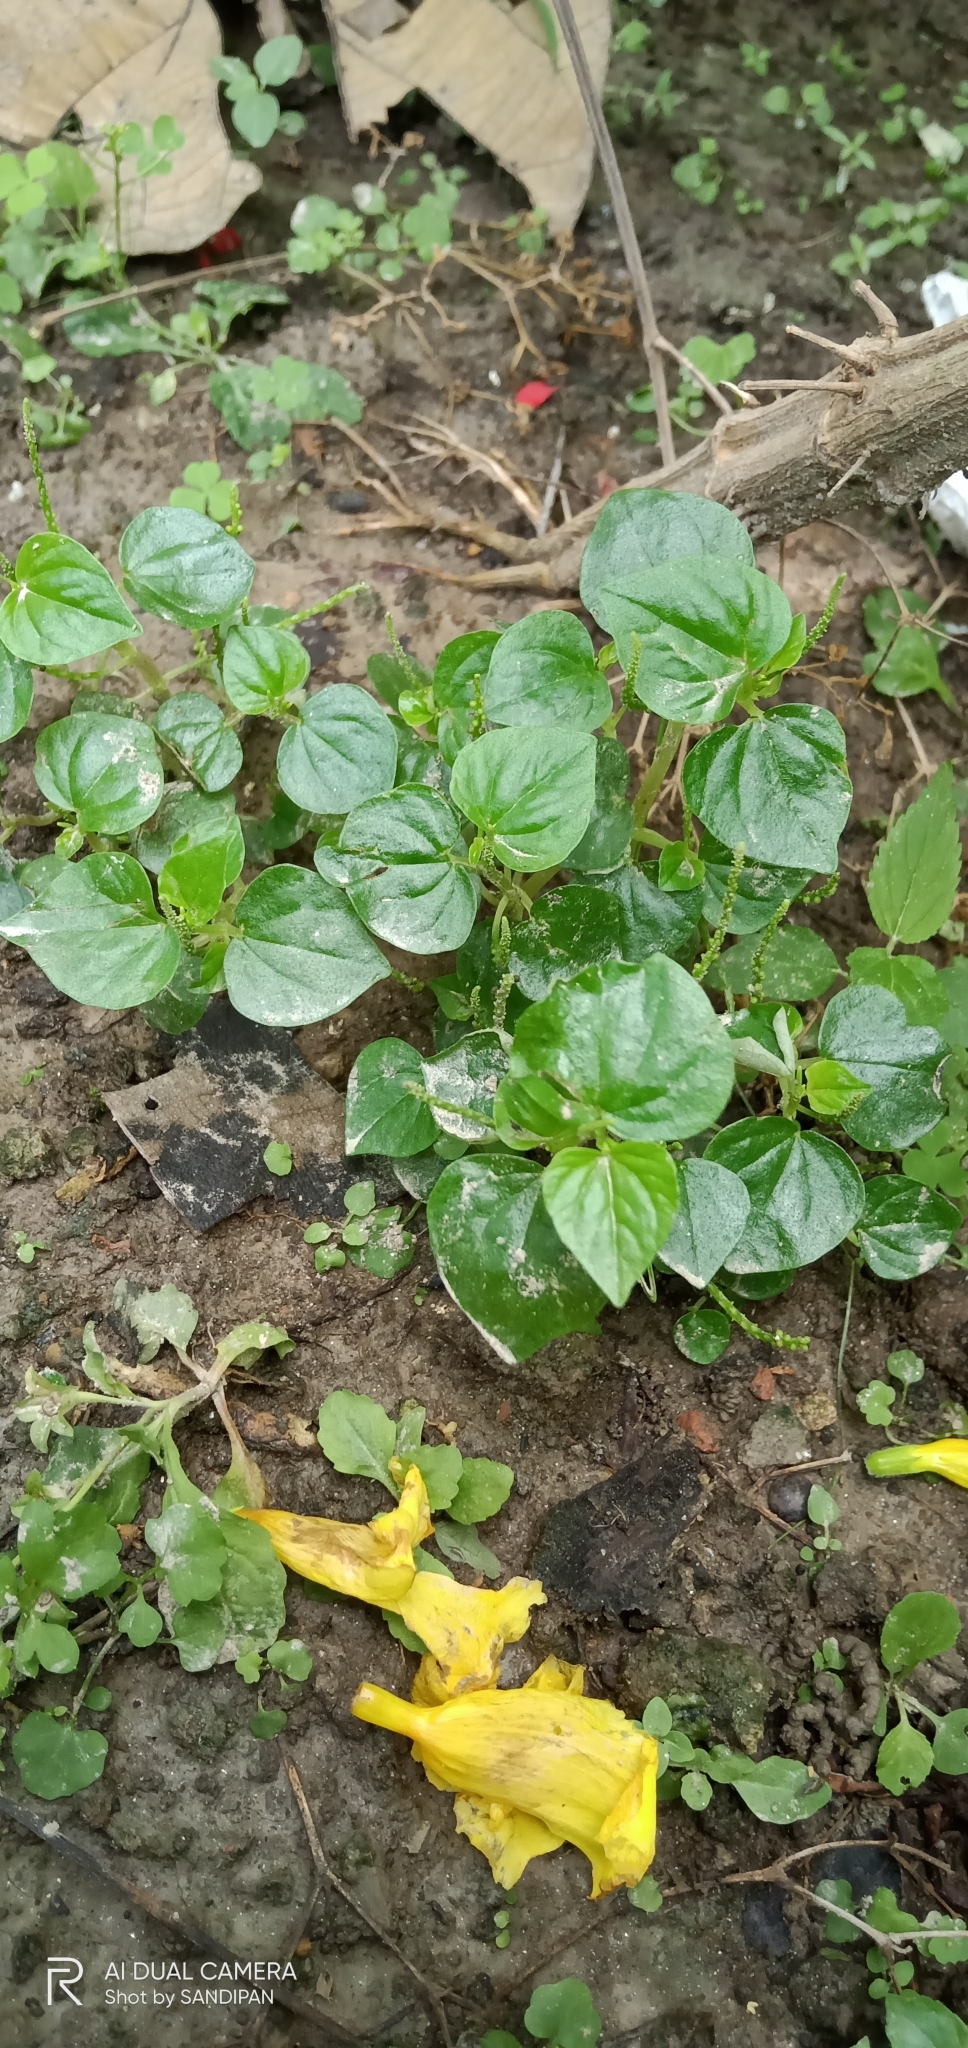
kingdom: Plantae
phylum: Tracheophyta
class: Magnoliopsida
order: Piperales
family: Piperaceae
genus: Peperomia
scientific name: Peperomia pellucida
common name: Man to man
